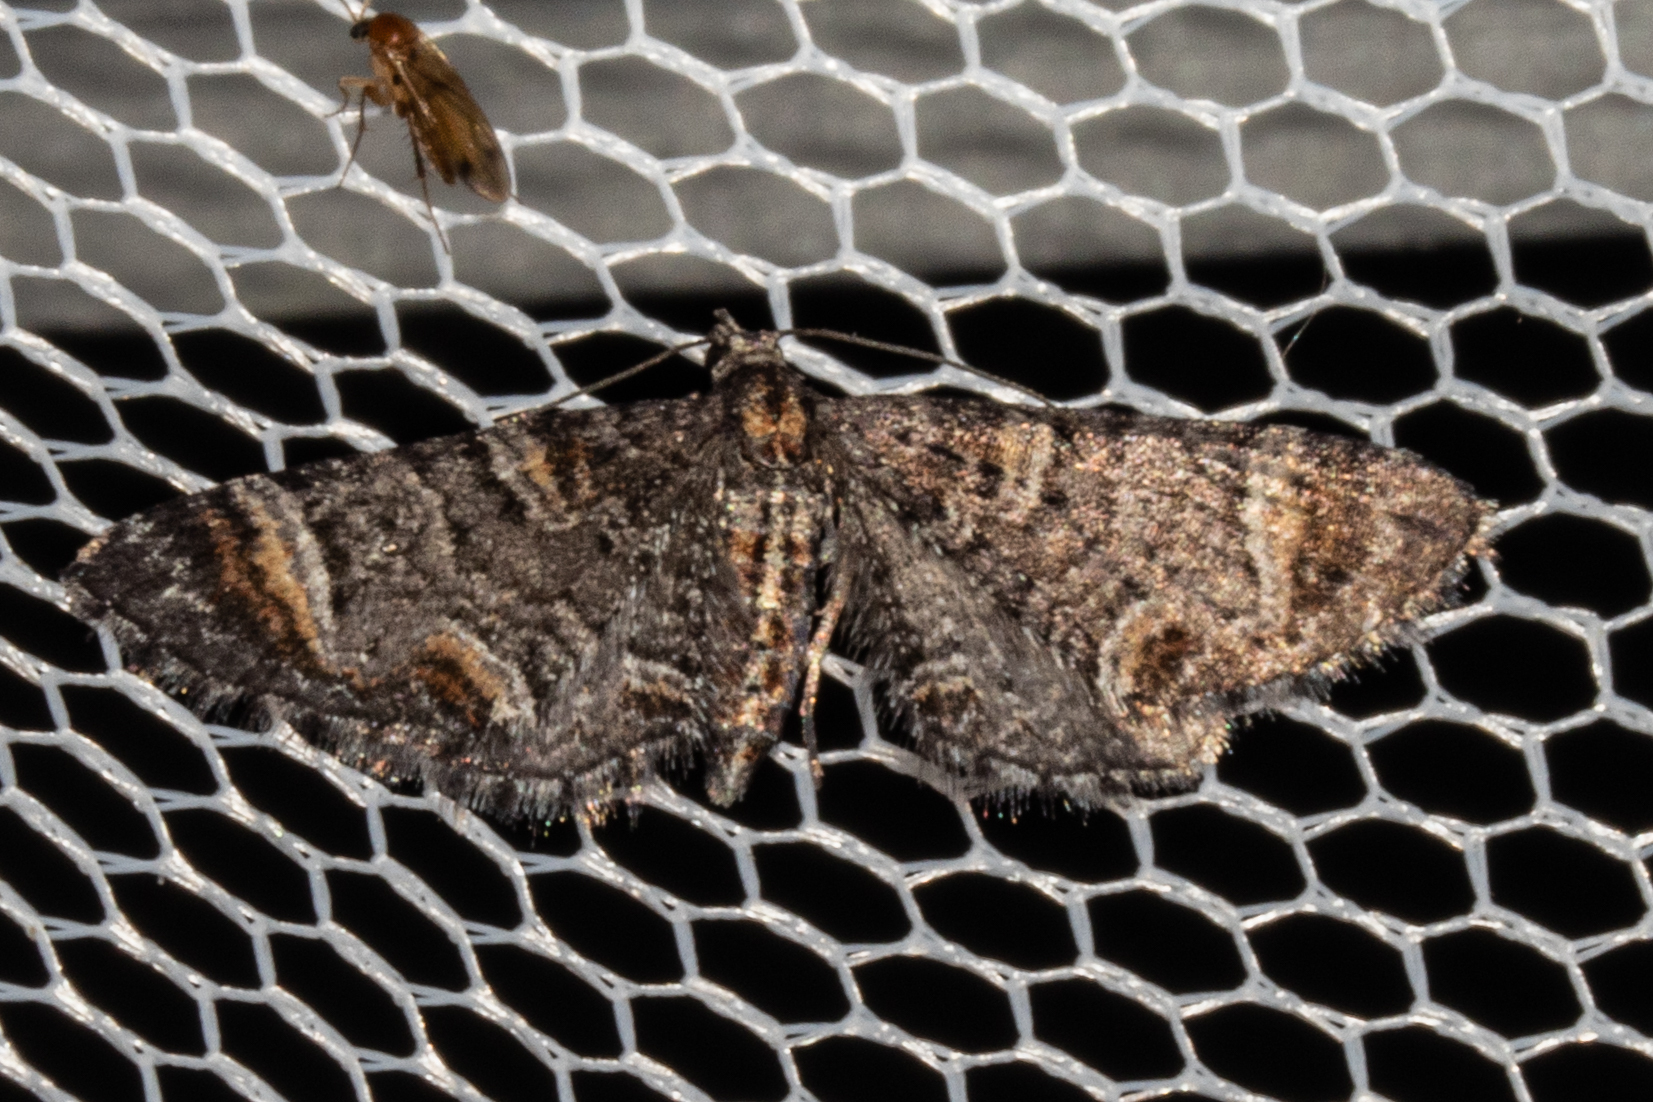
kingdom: Animalia
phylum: Arthropoda
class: Insecta
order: Lepidoptera
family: Geometridae
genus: Pasiphila
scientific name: Pasiphila erratica
